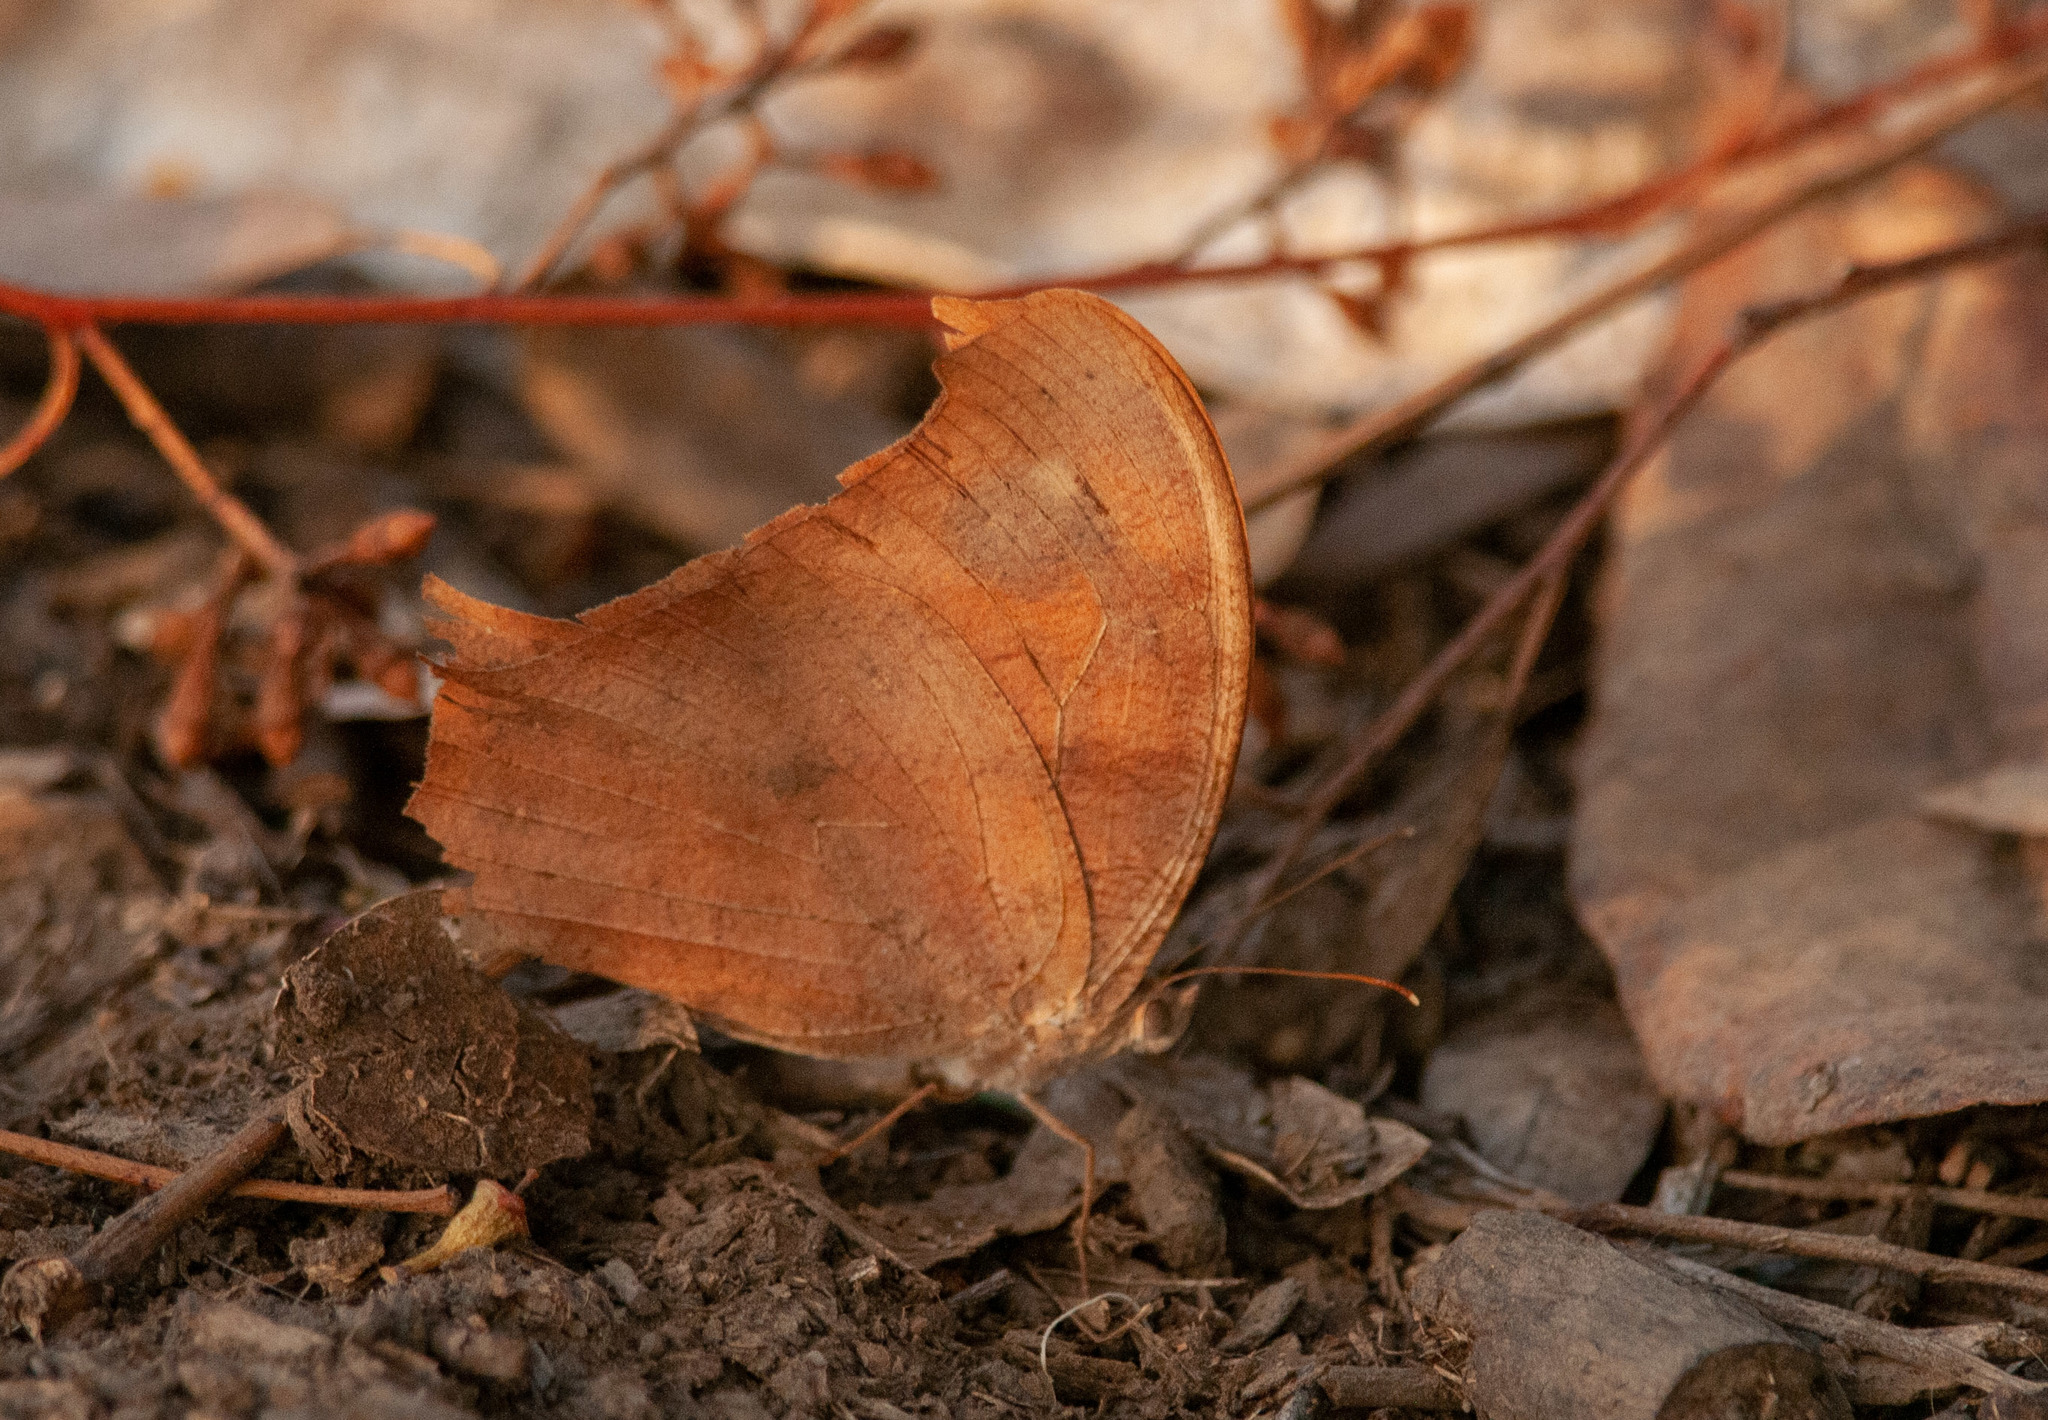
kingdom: Animalia
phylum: Arthropoda
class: Insecta
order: Lepidoptera
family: Nymphalidae
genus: Melanitis
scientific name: Melanitis leda
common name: Twilight brown
